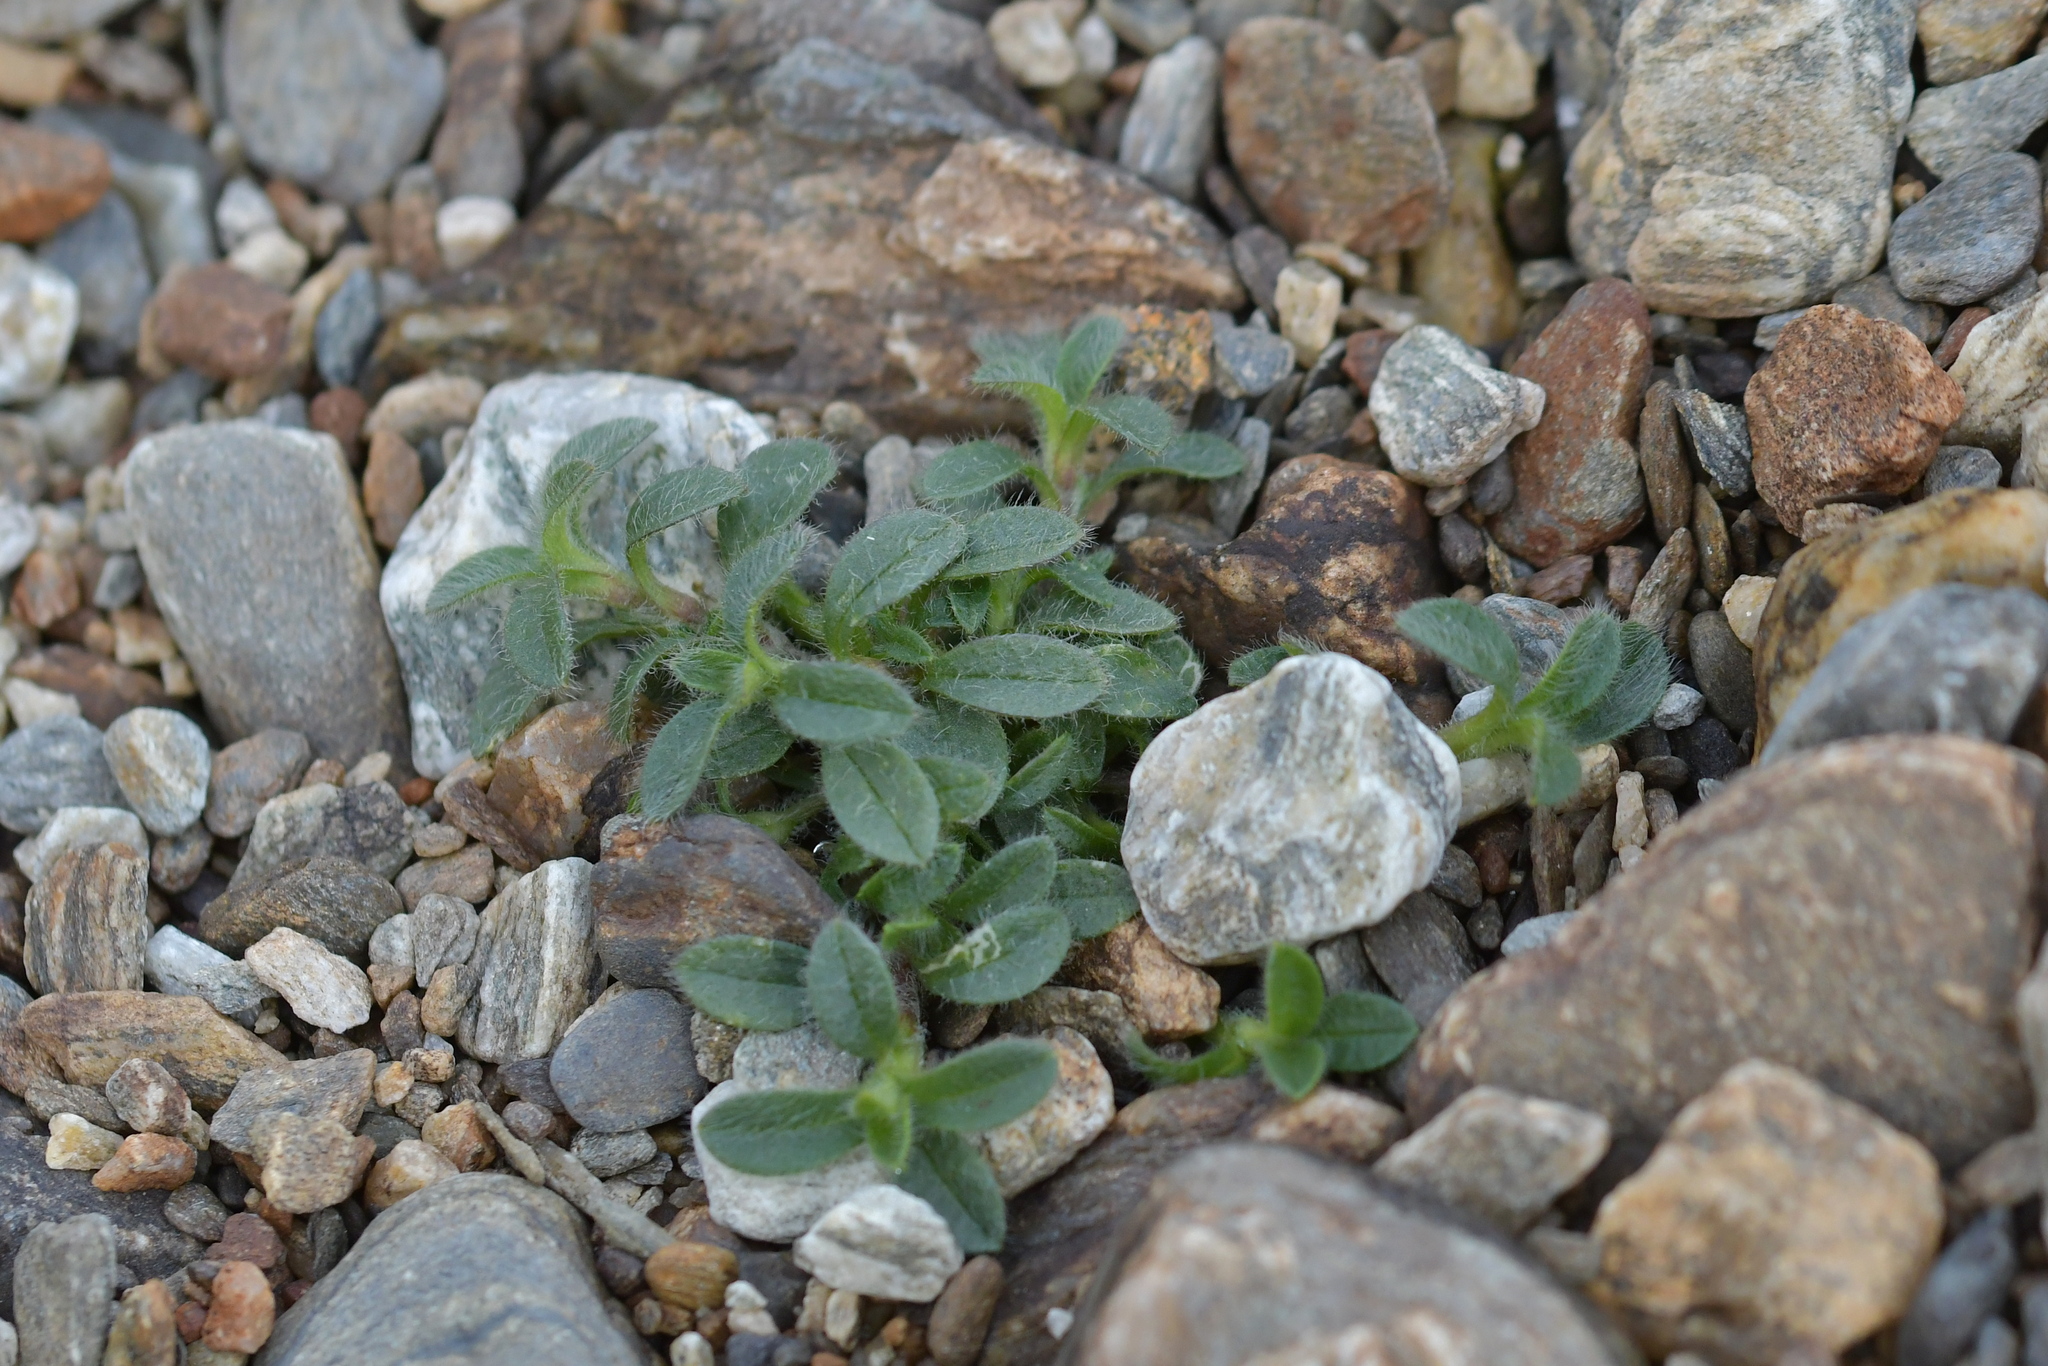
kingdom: Plantae
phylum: Tracheophyta
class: Magnoliopsida
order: Caryophyllales
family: Caryophyllaceae
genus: Cerastium
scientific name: Cerastium fontanum
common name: Common mouse-ear
